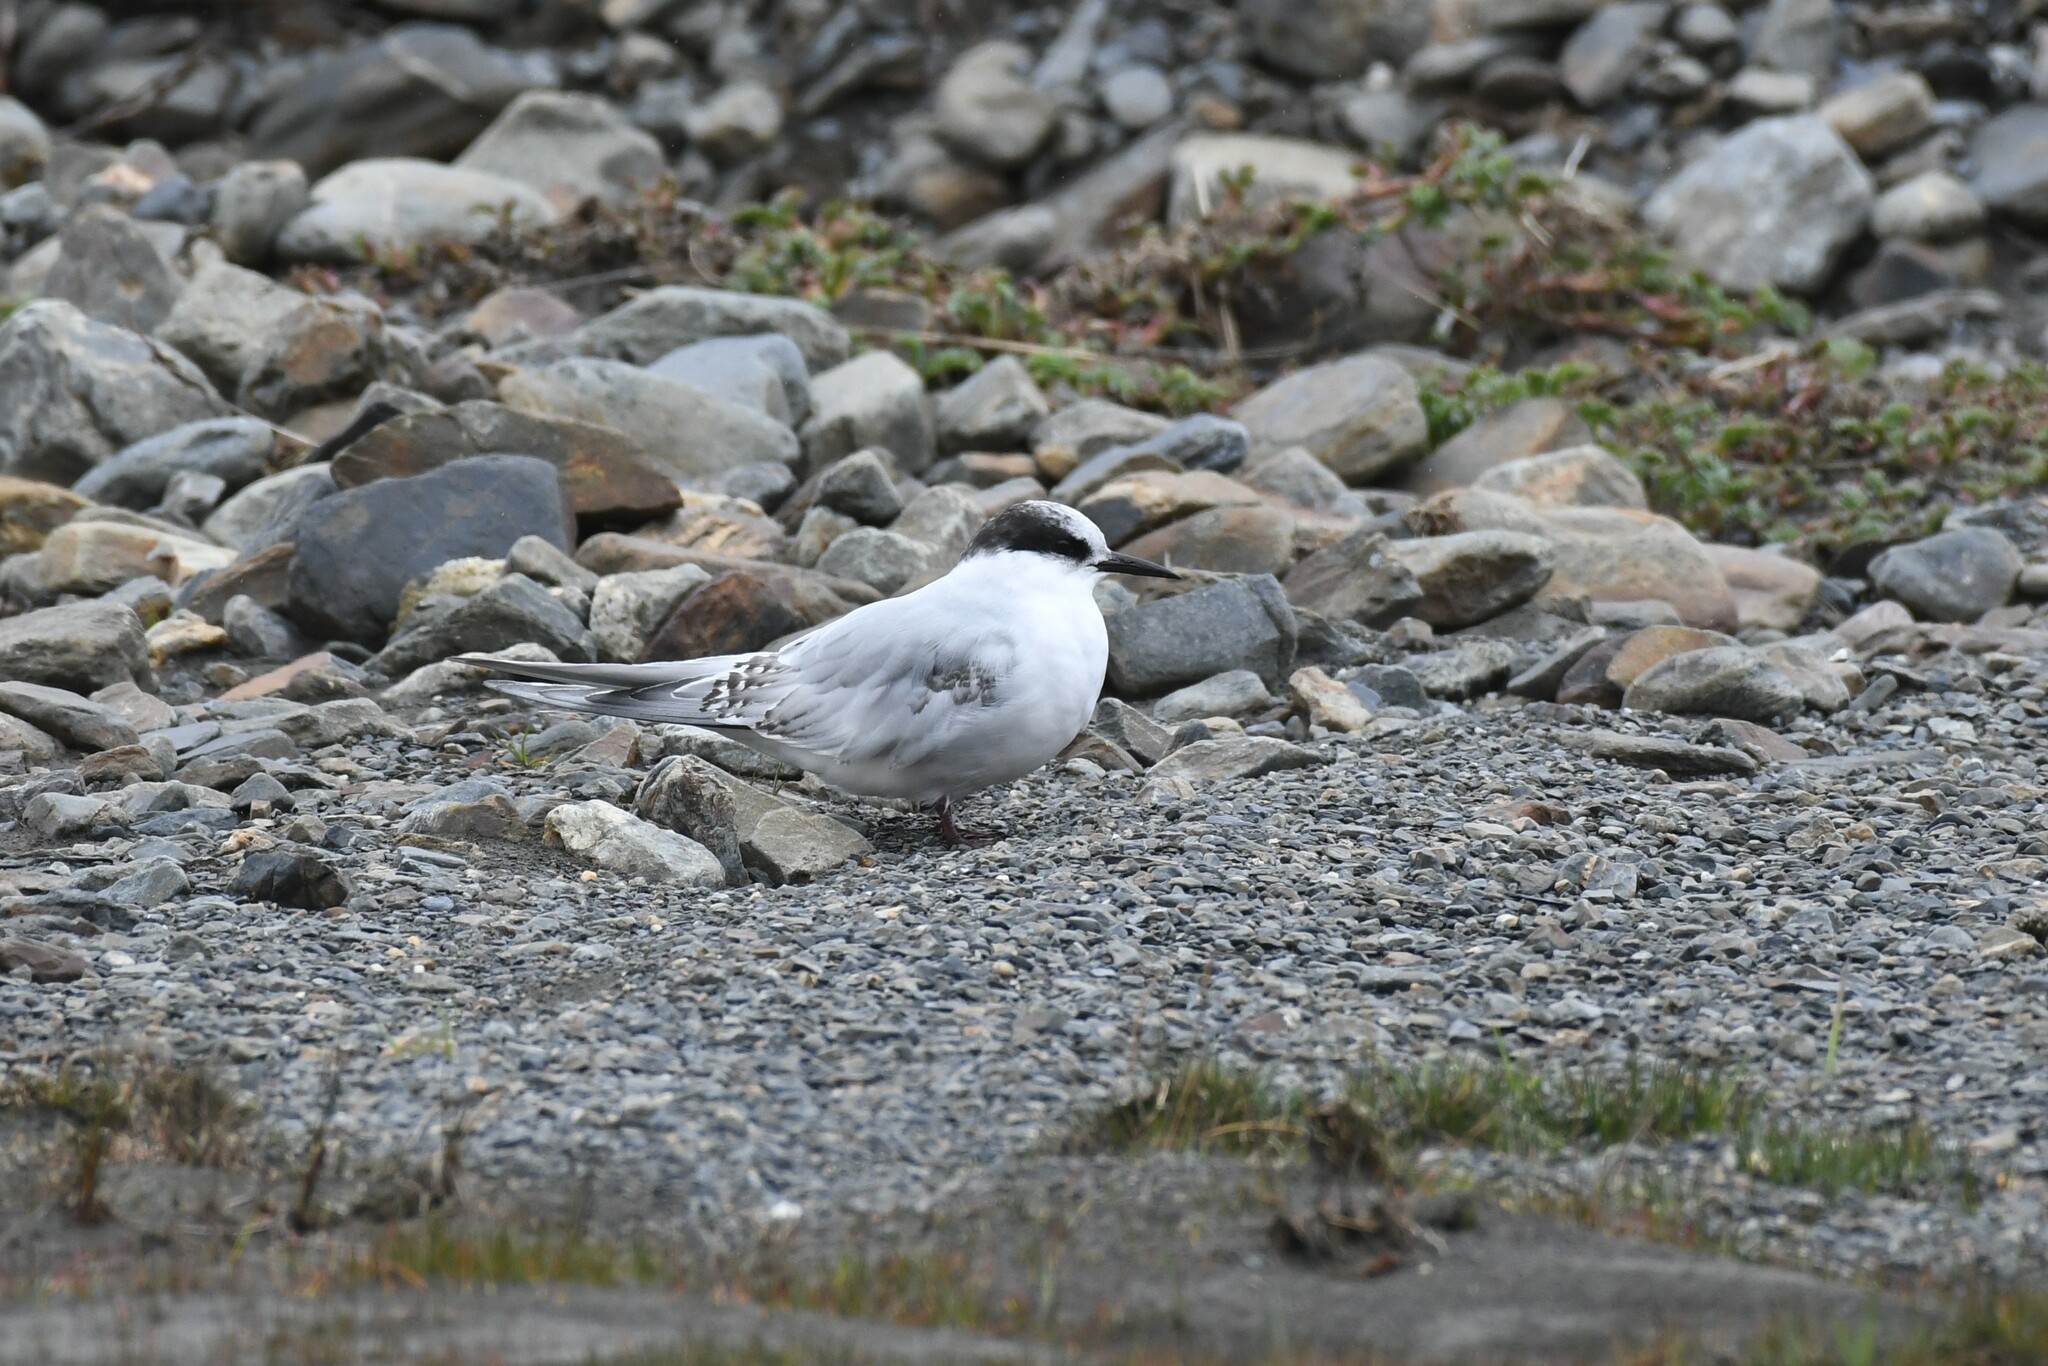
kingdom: Animalia
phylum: Chordata
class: Aves
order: Charadriiformes
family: Laridae
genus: Sterna
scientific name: Sterna vittata
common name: Antarctic tern
